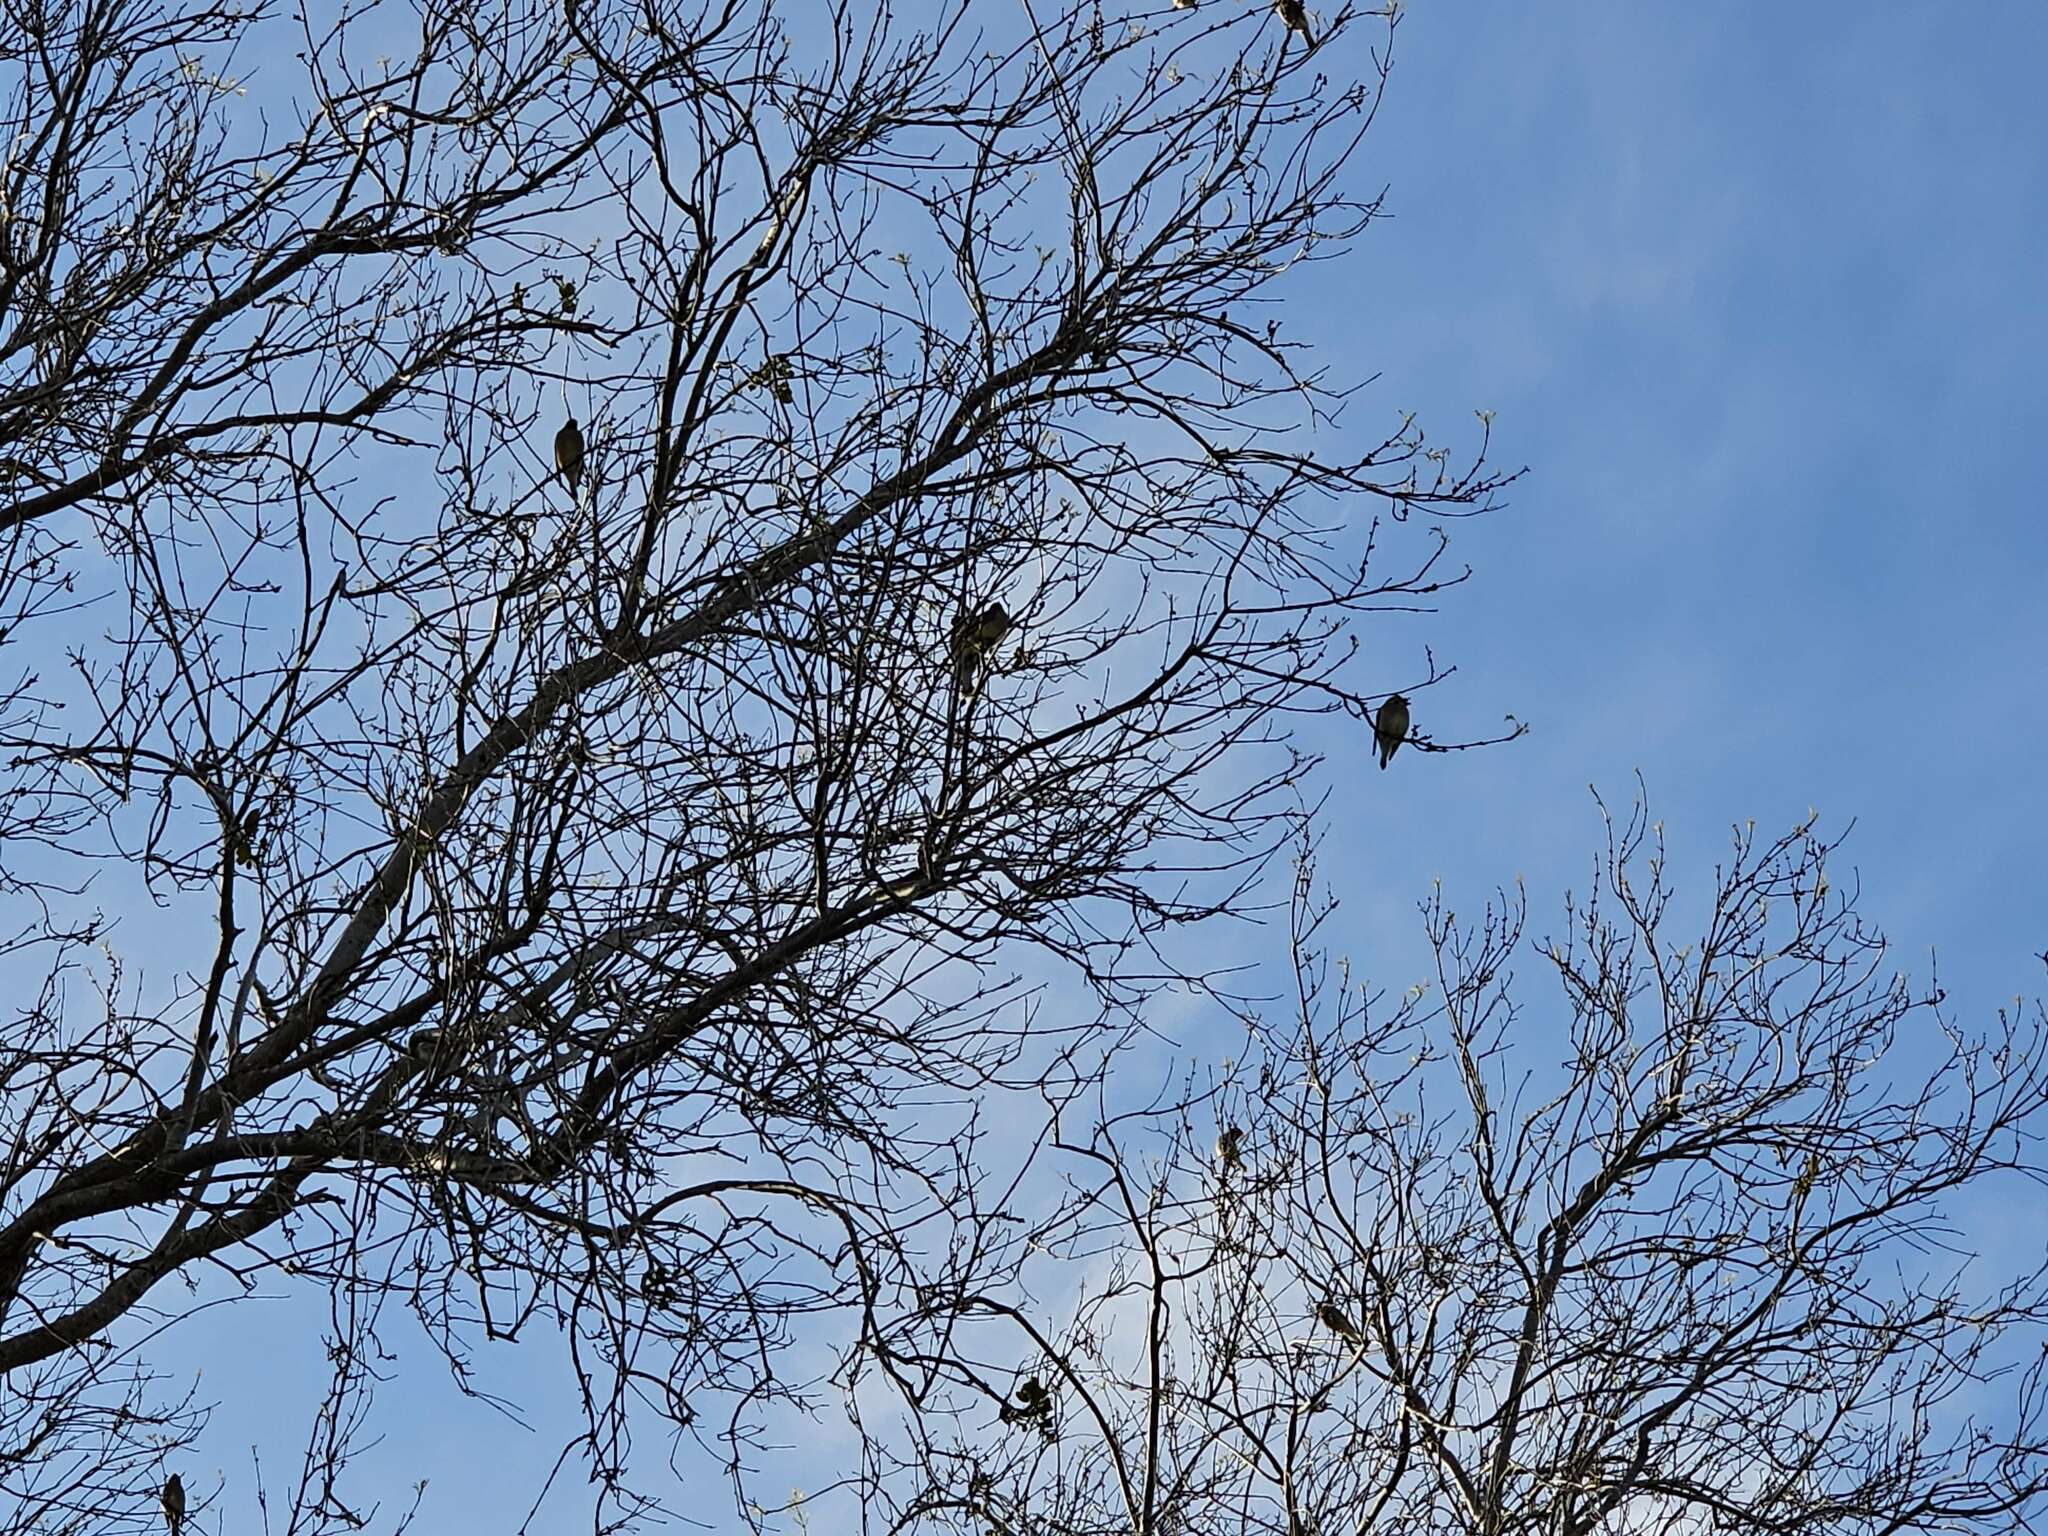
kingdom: Animalia
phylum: Chordata
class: Aves
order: Passeriformes
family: Bombycillidae
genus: Bombycilla
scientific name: Bombycilla cedrorum
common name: Cedar waxwing
